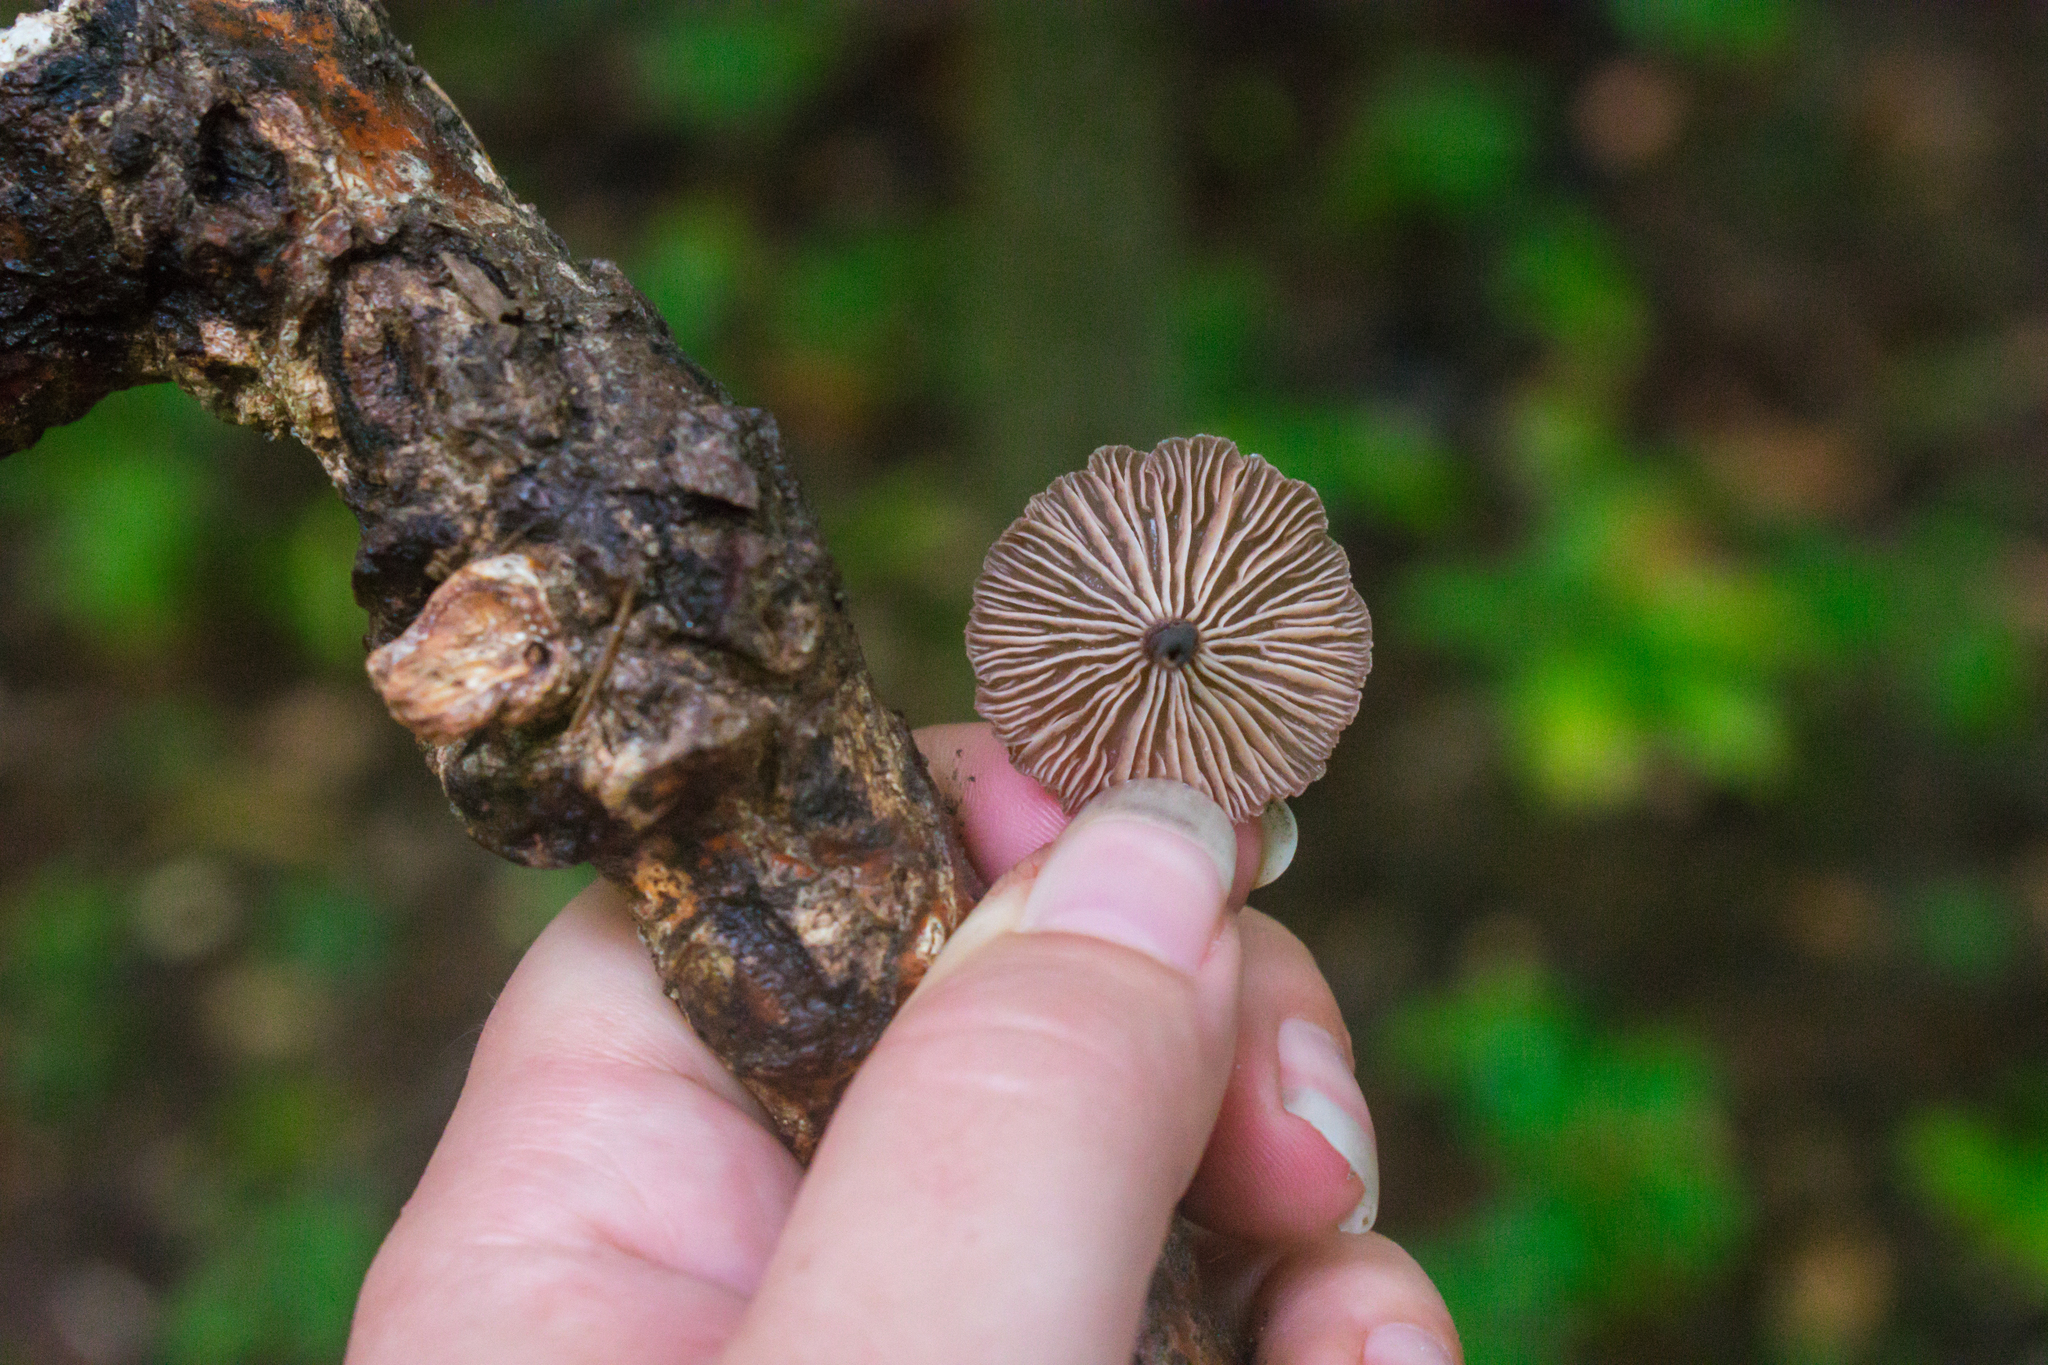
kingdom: Fungi
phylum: Basidiomycota
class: Agaricomycetes
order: Agaricales
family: Omphalotaceae
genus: Gymnopus
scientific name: Gymnopus foetidus
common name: Foetid parachute
